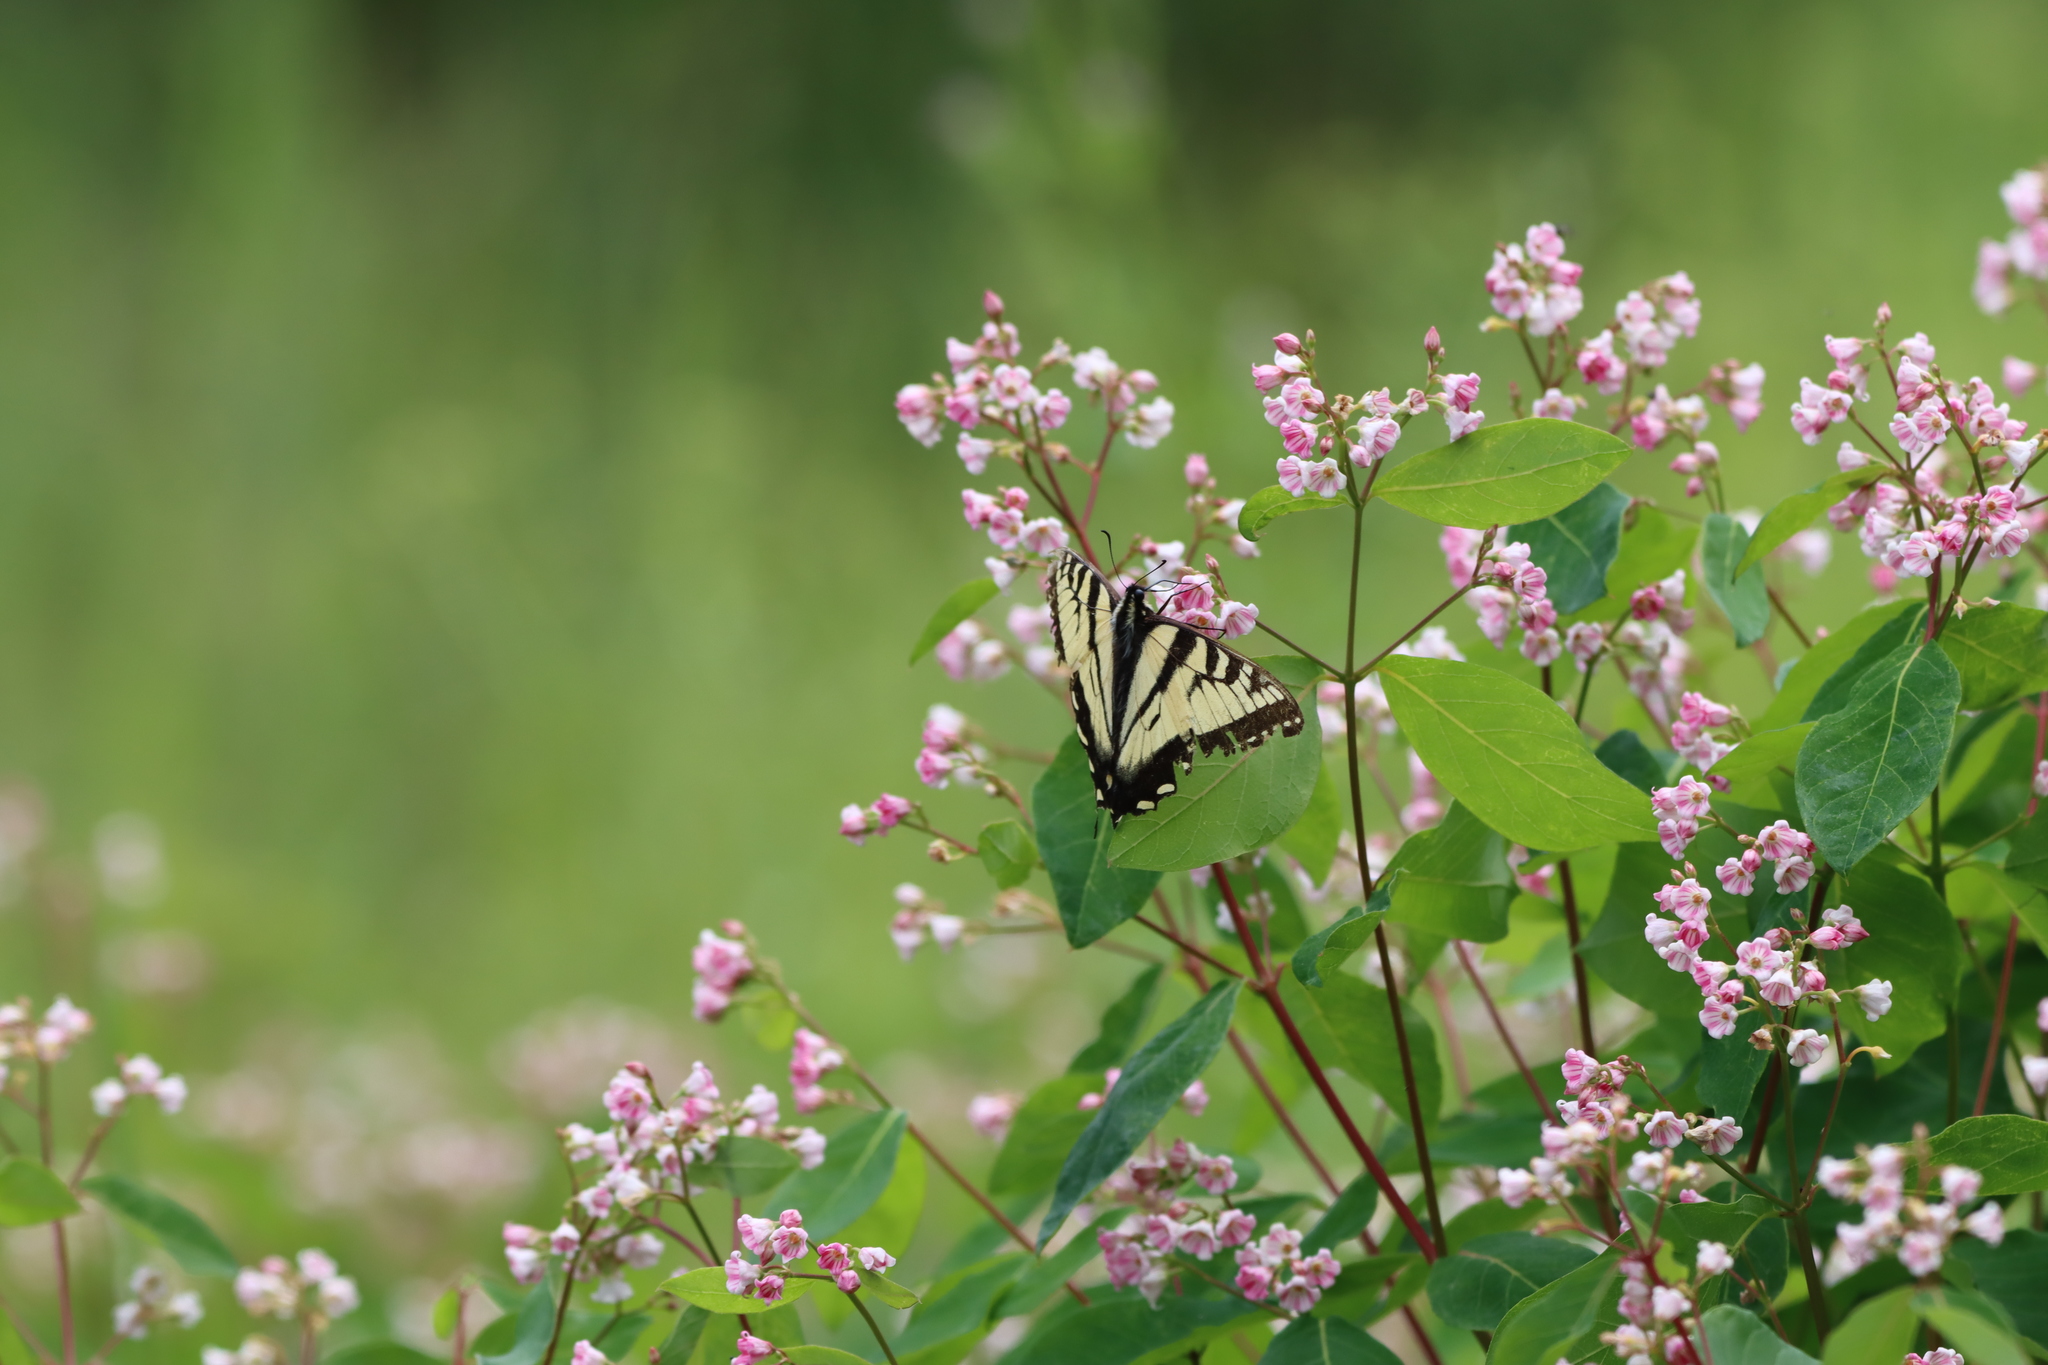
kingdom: Plantae
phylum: Tracheophyta
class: Magnoliopsida
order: Gentianales
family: Apocynaceae
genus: Apocynum
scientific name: Apocynum androsaemifolium
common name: Spreading dogbane
